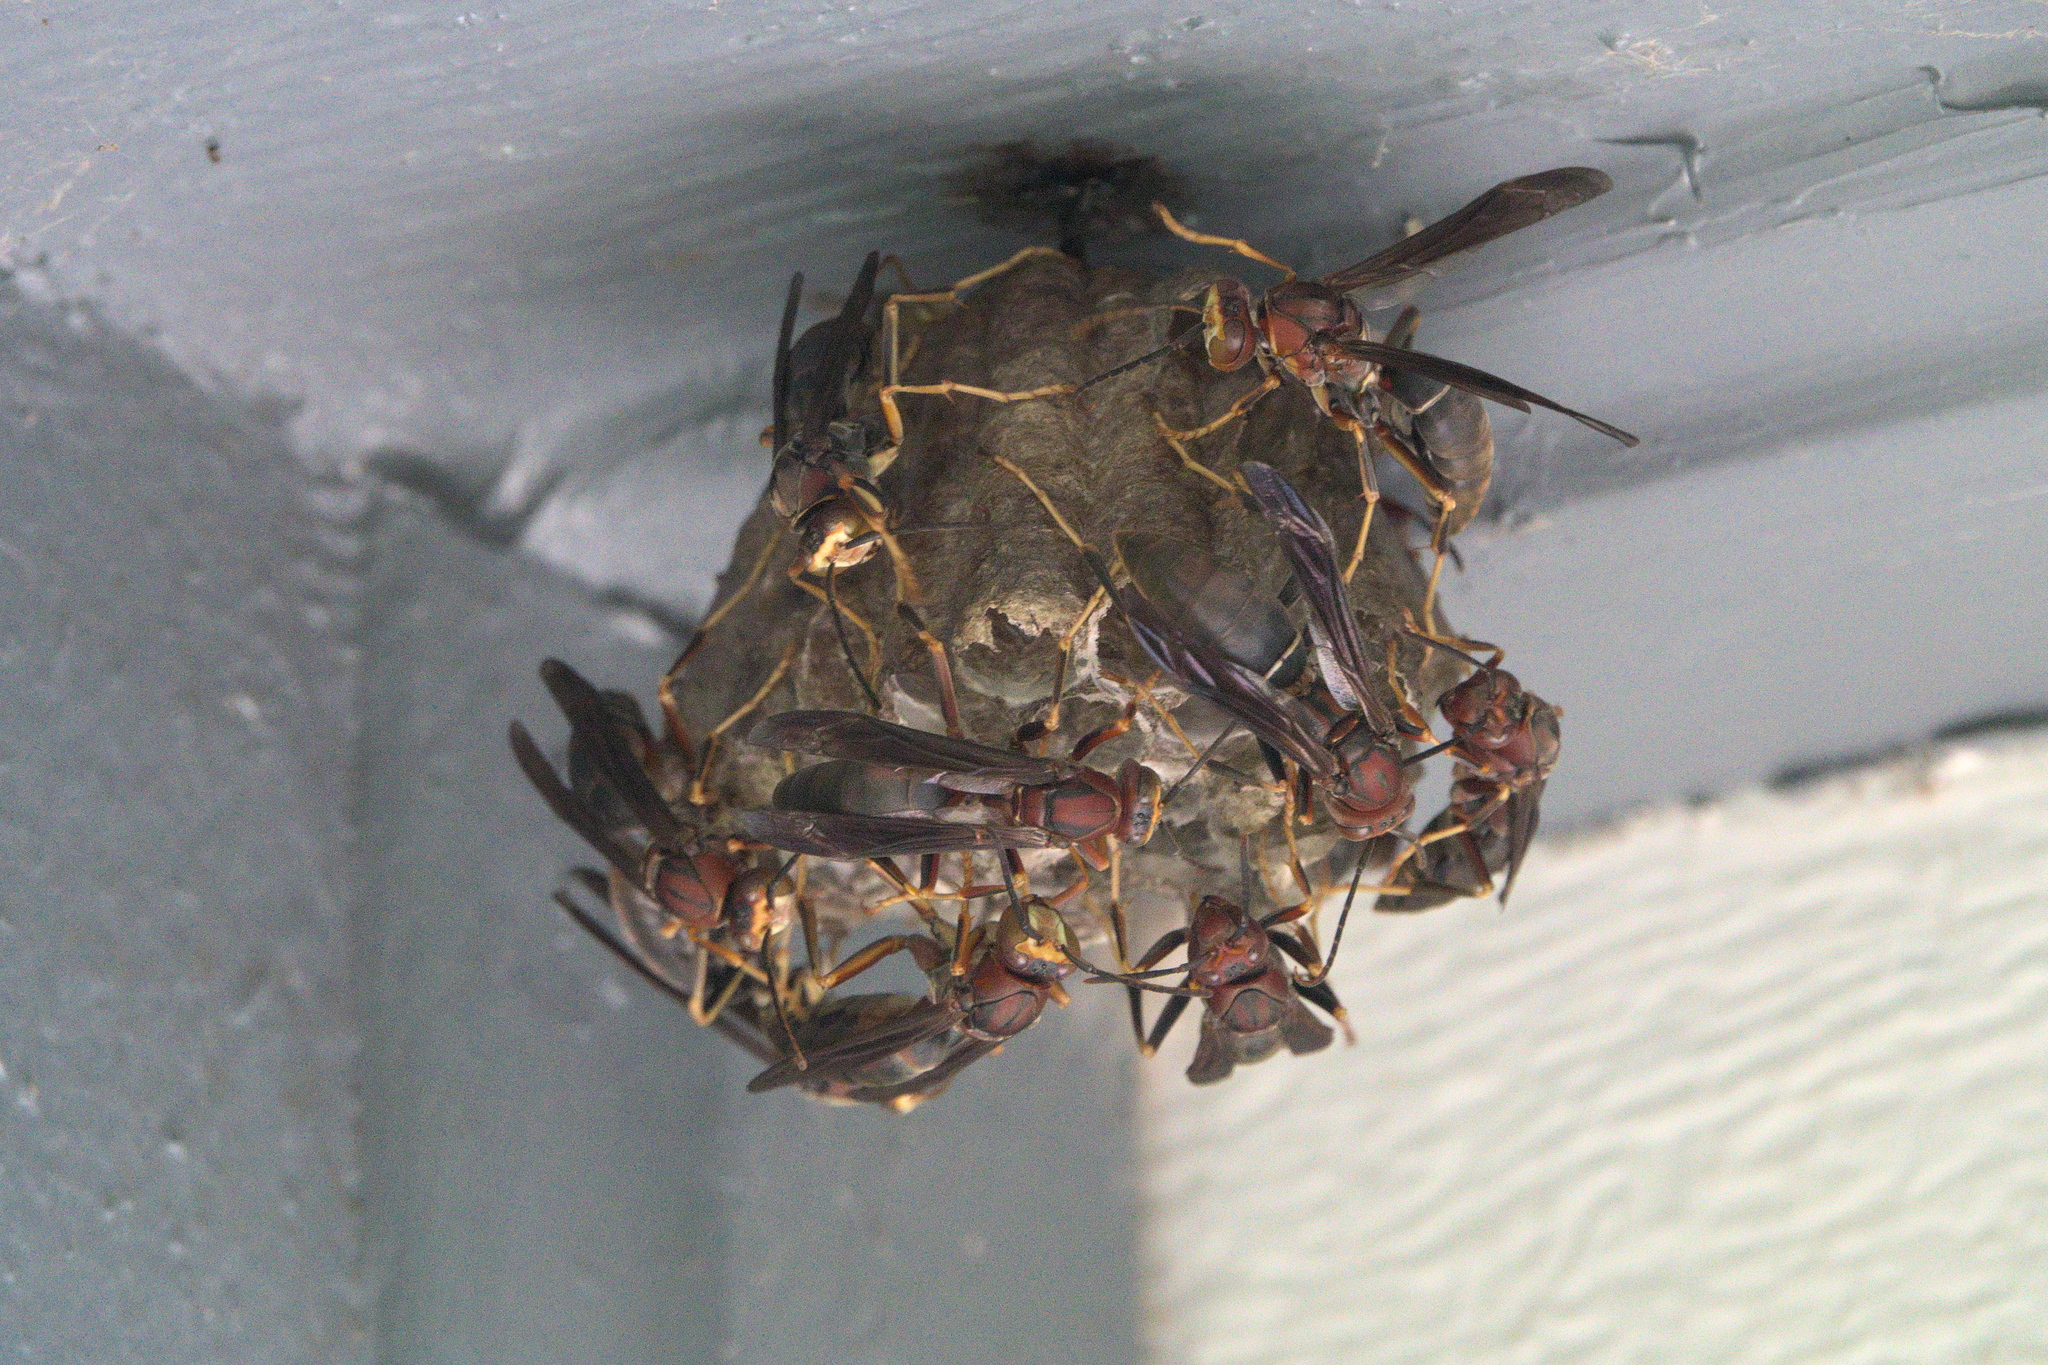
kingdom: Animalia
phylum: Arthropoda
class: Insecta
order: Hymenoptera
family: Eumenidae
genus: Polistes
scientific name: Polistes metricus
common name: Metric paper wasp
